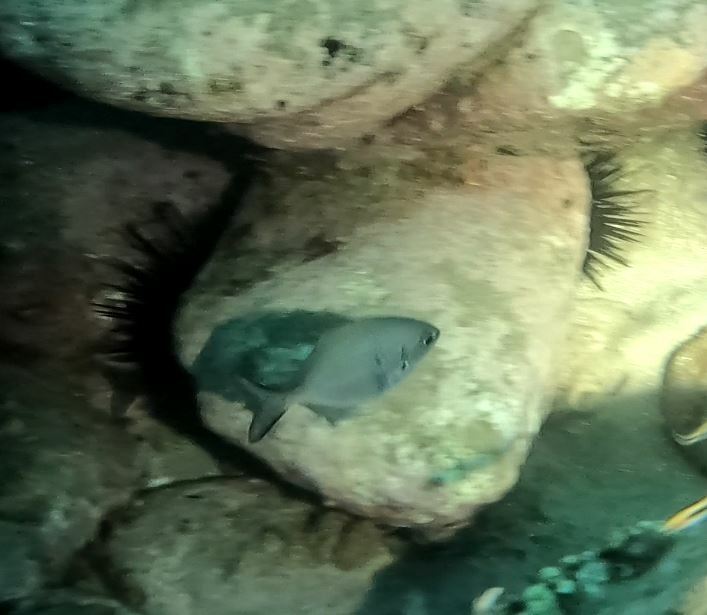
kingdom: Animalia
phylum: Chordata
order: Perciformes
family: Kyphosidae
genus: Scorpis
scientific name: Scorpis lineolata
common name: Sweep
